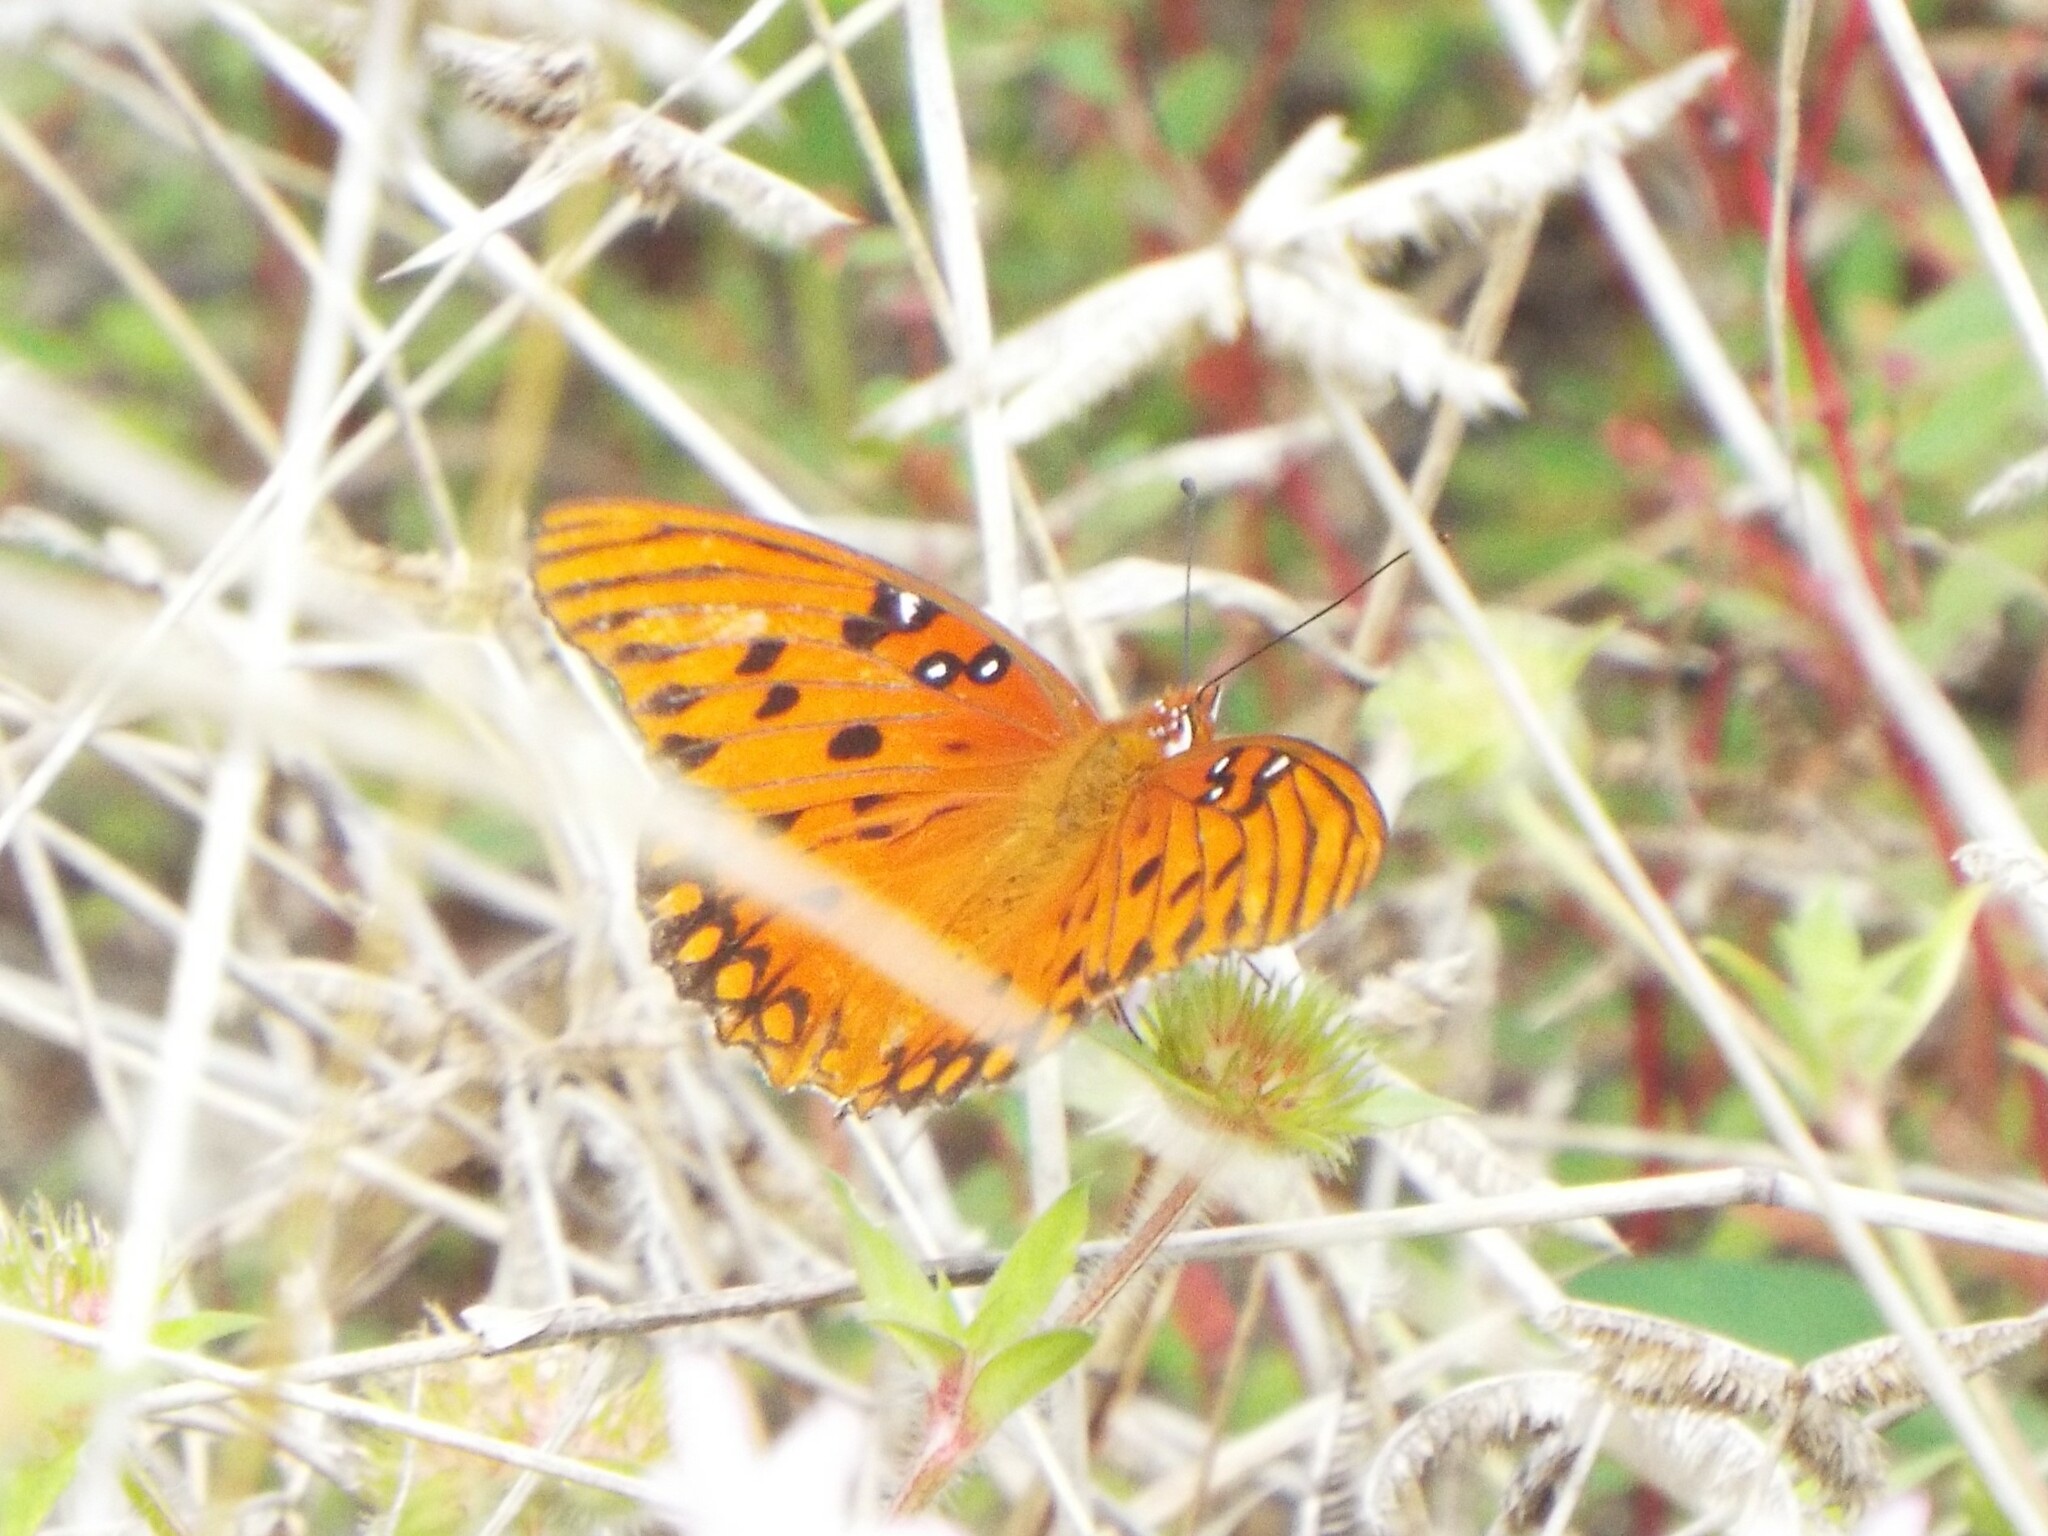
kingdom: Animalia
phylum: Arthropoda
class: Insecta
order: Lepidoptera
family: Nymphalidae
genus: Dione
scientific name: Dione vanillae
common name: Gulf fritillary
